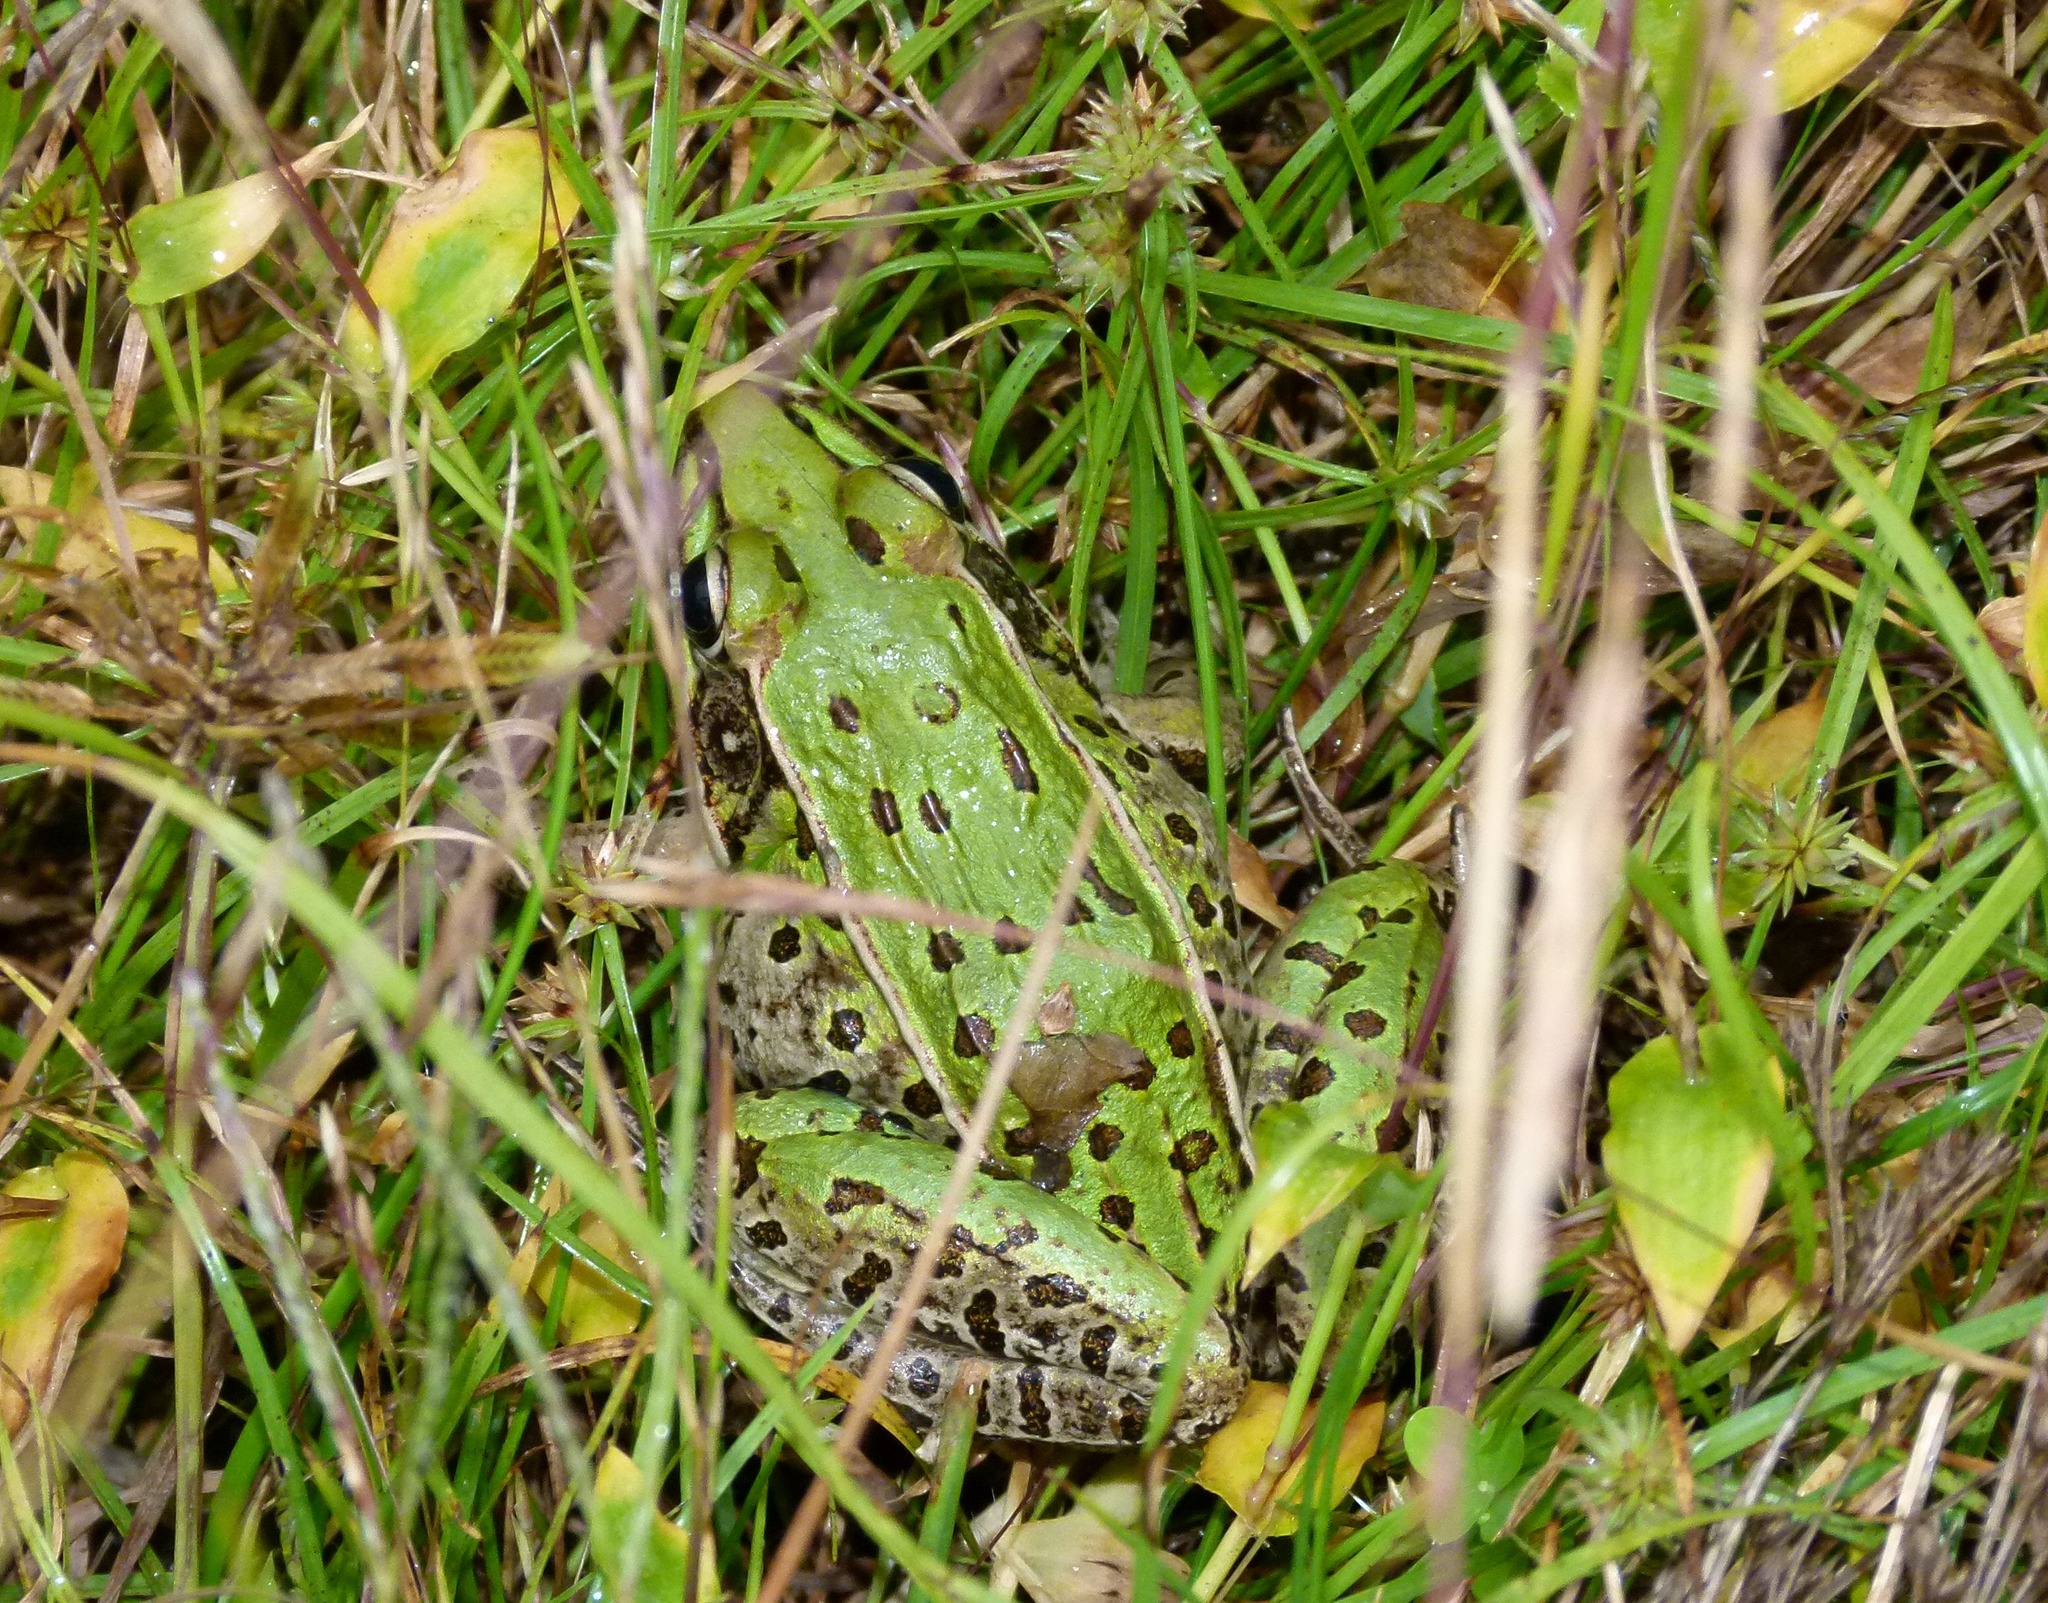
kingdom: Animalia
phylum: Chordata
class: Amphibia
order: Anura
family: Ranidae
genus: Lithobates
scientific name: Lithobates sphenocephalus
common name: Southern leopard frog
